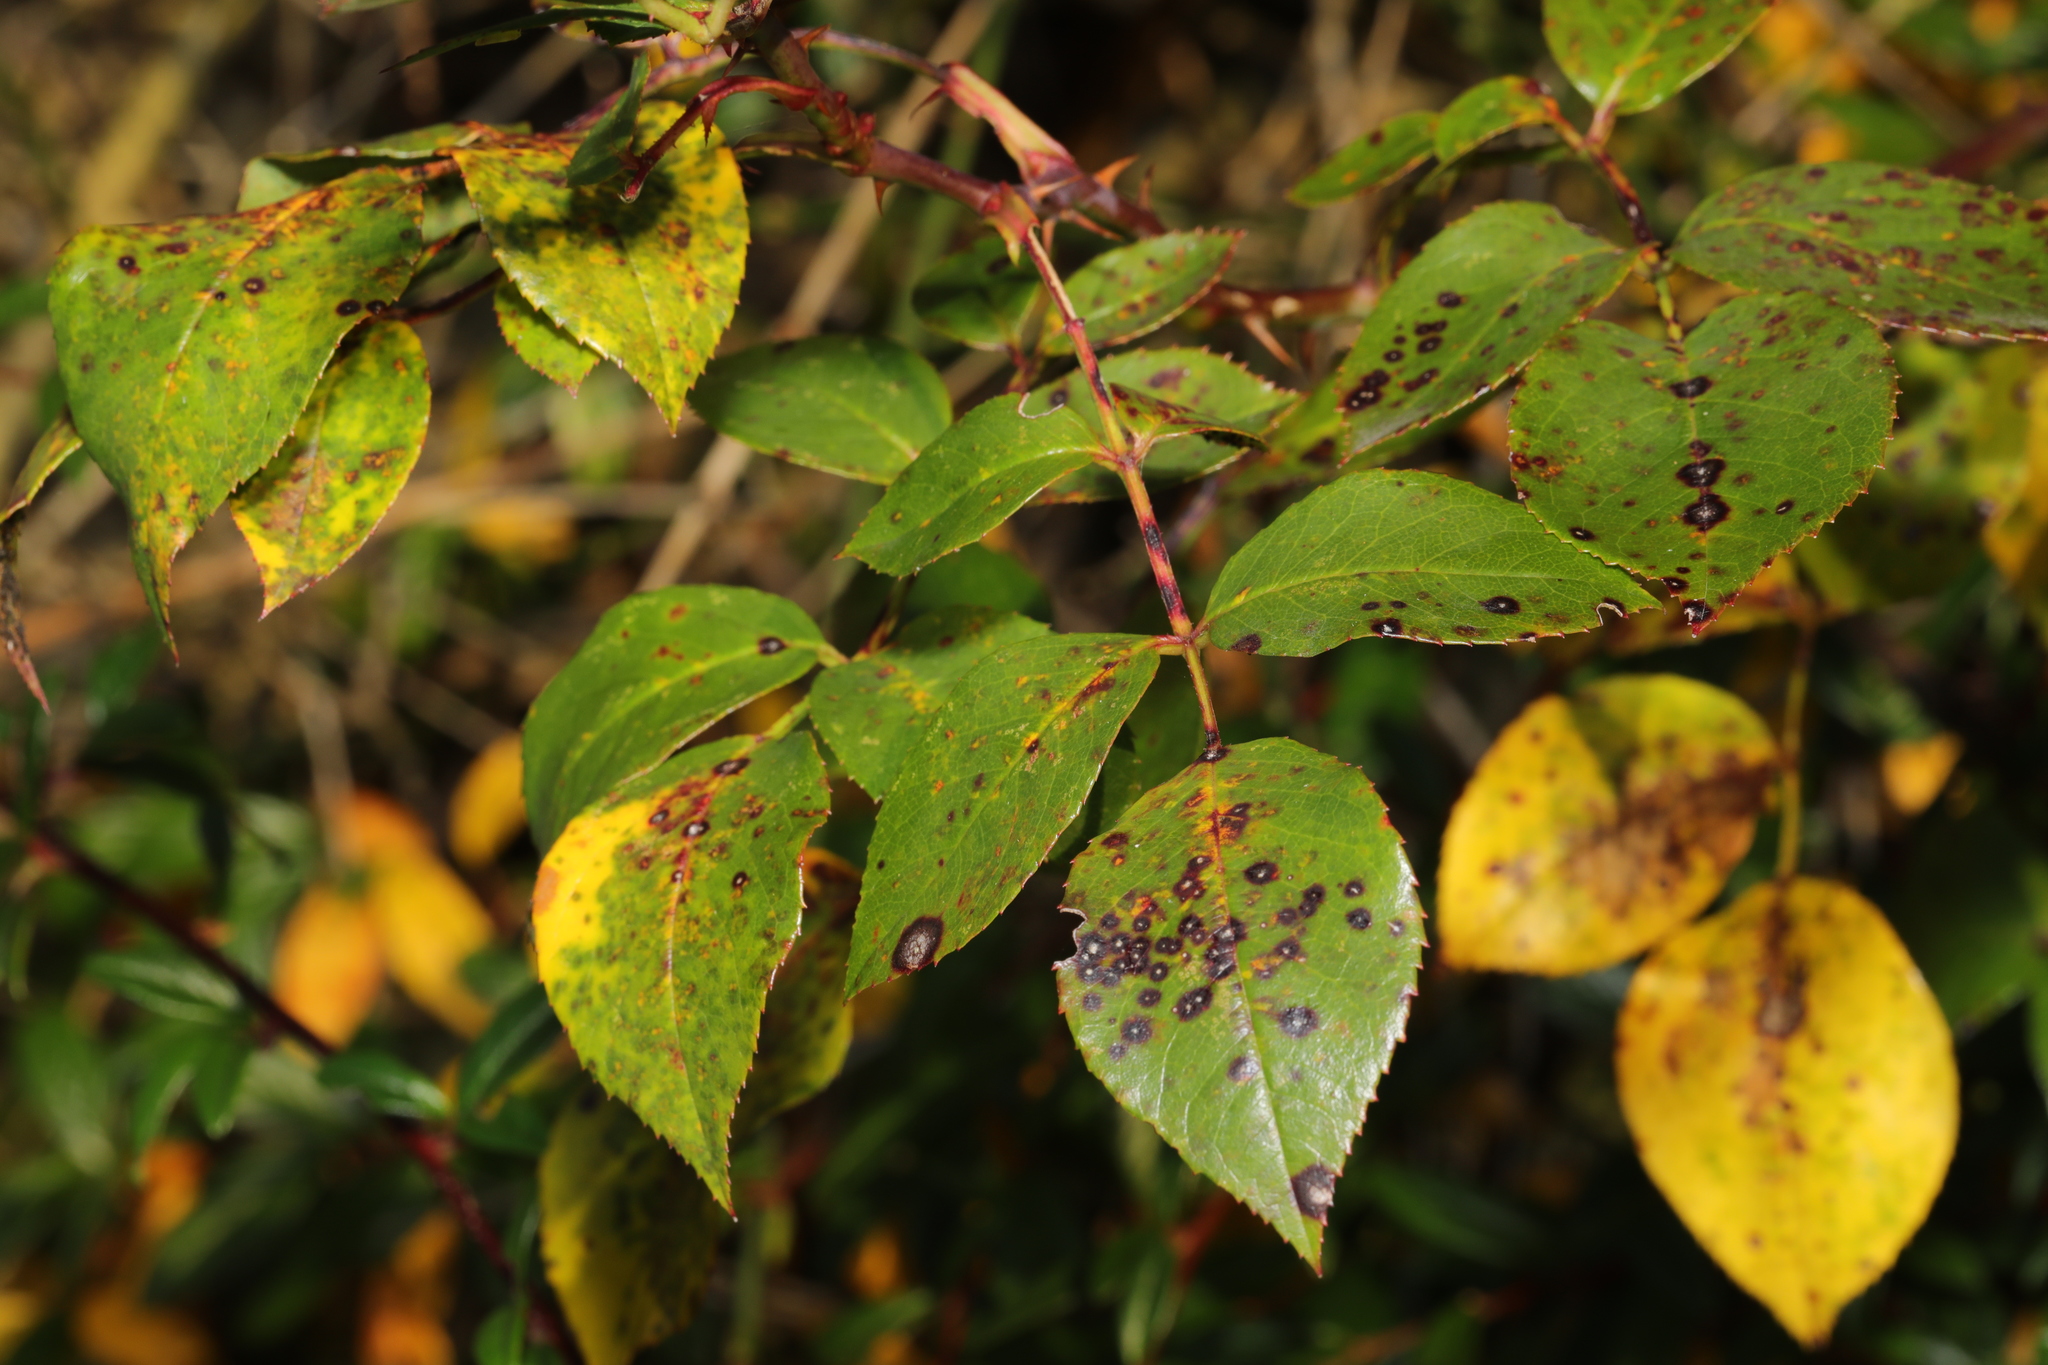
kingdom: Fungi
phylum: Ascomycota
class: Leotiomycetes
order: Helotiales
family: Drepanopezizaceae
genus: Diplocarpon
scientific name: Diplocarpon rosae
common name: Rose black-spot
